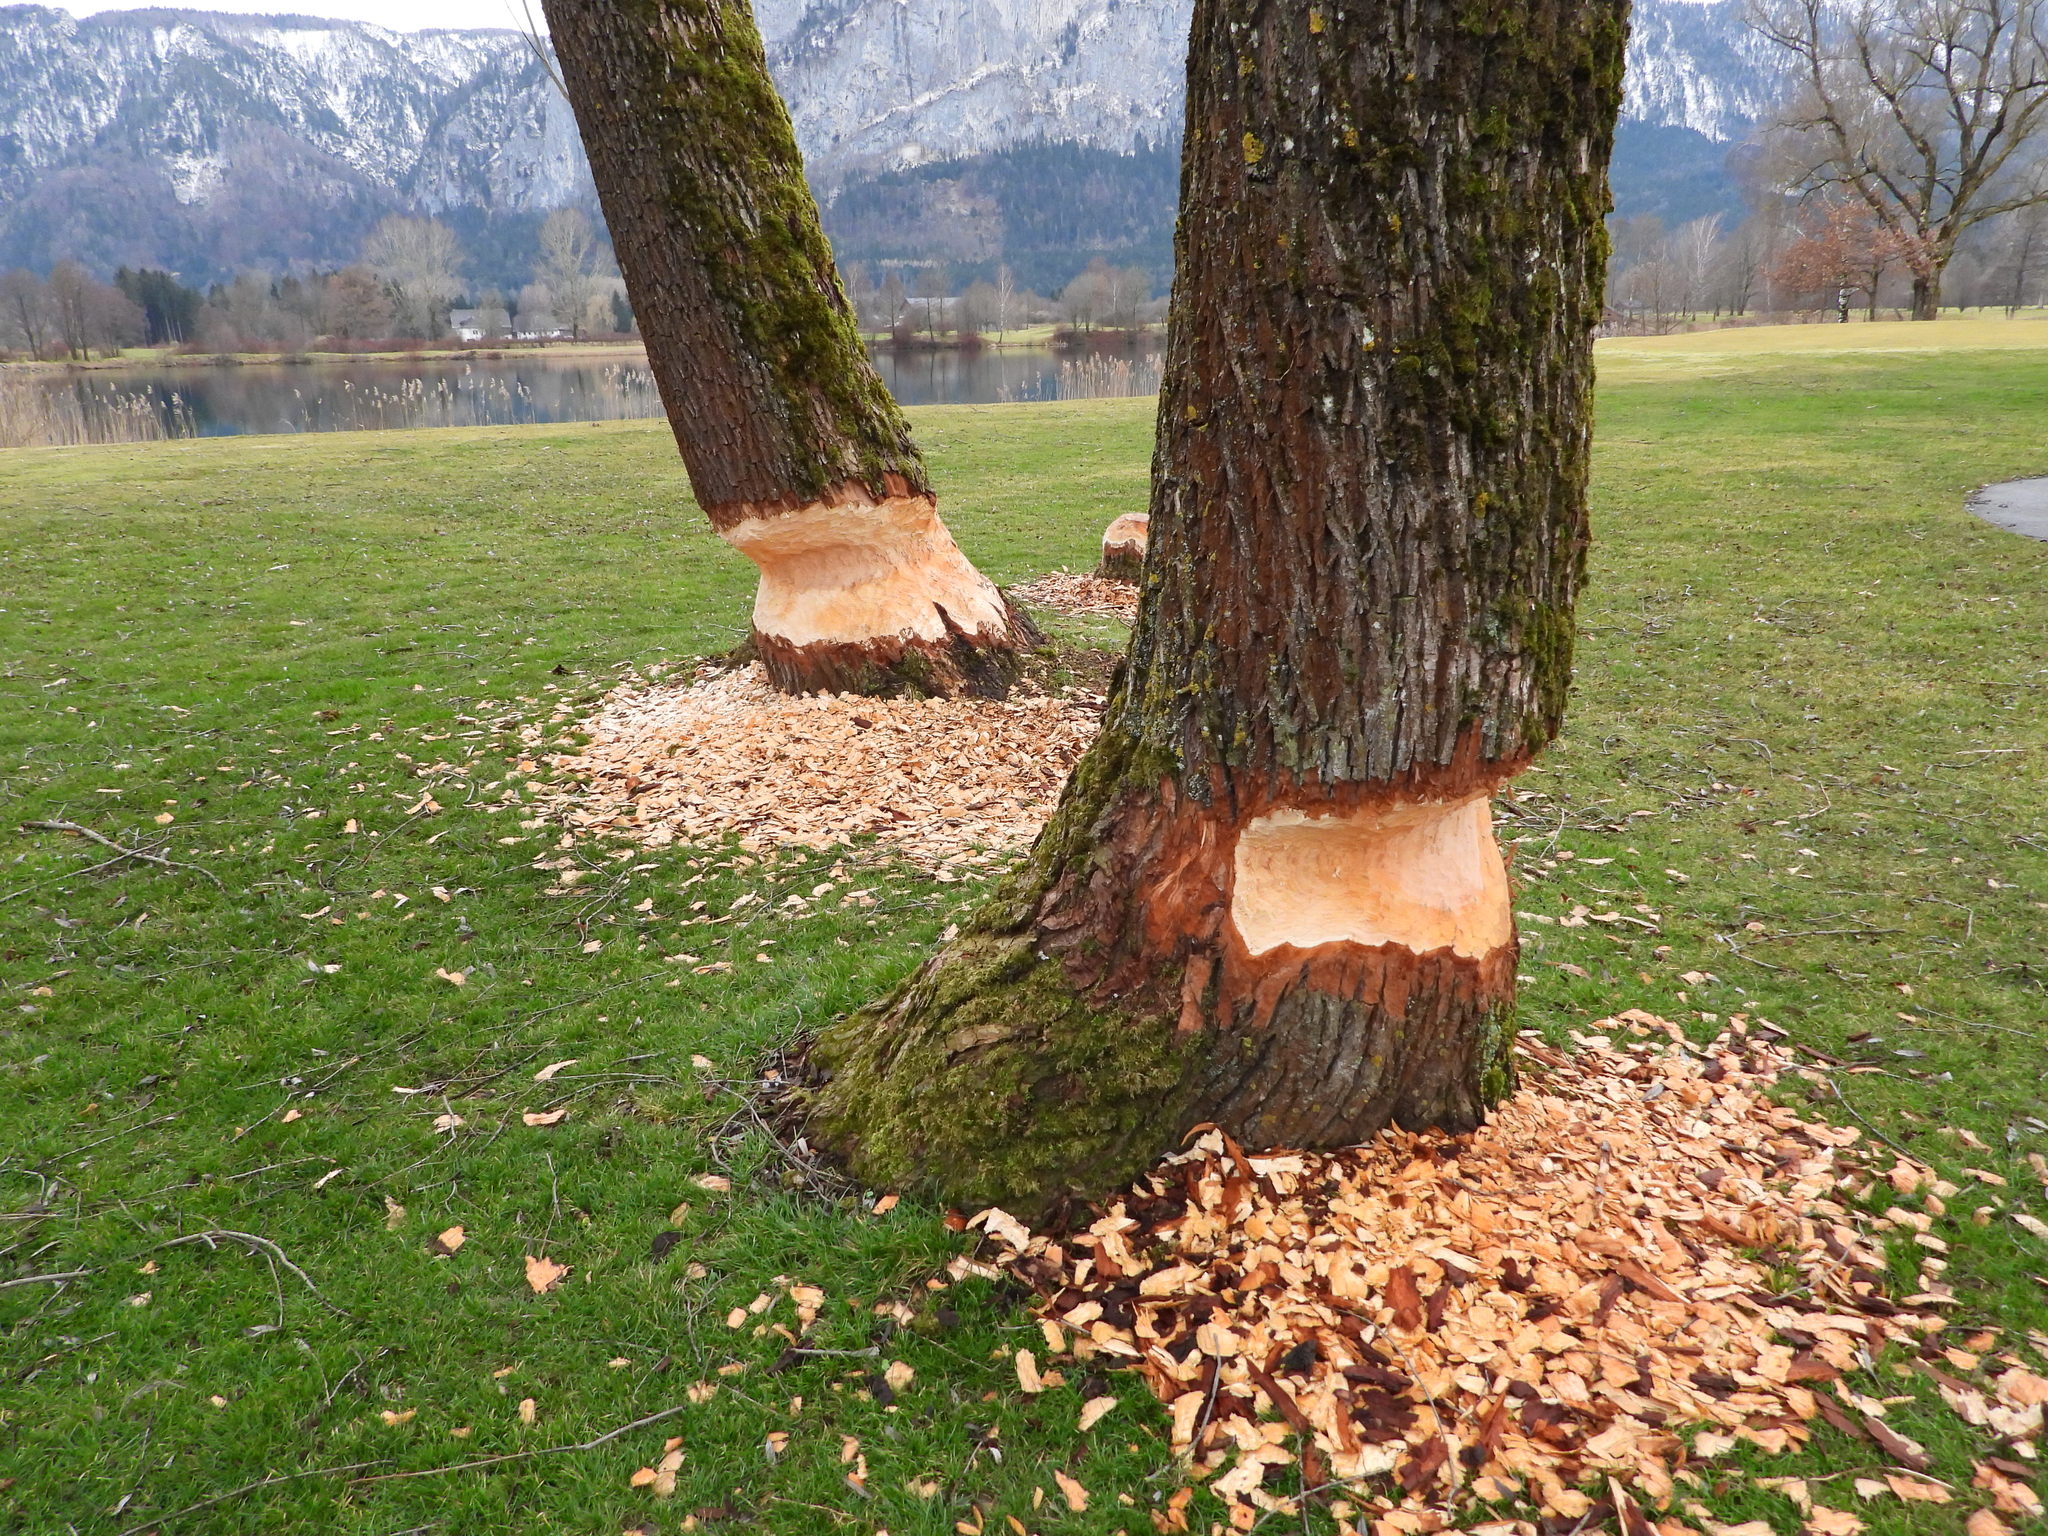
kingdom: Animalia
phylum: Chordata
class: Mammalia
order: Rodentia
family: Castoridae
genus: Castor
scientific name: Castor fiber
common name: Eurasian beaver
